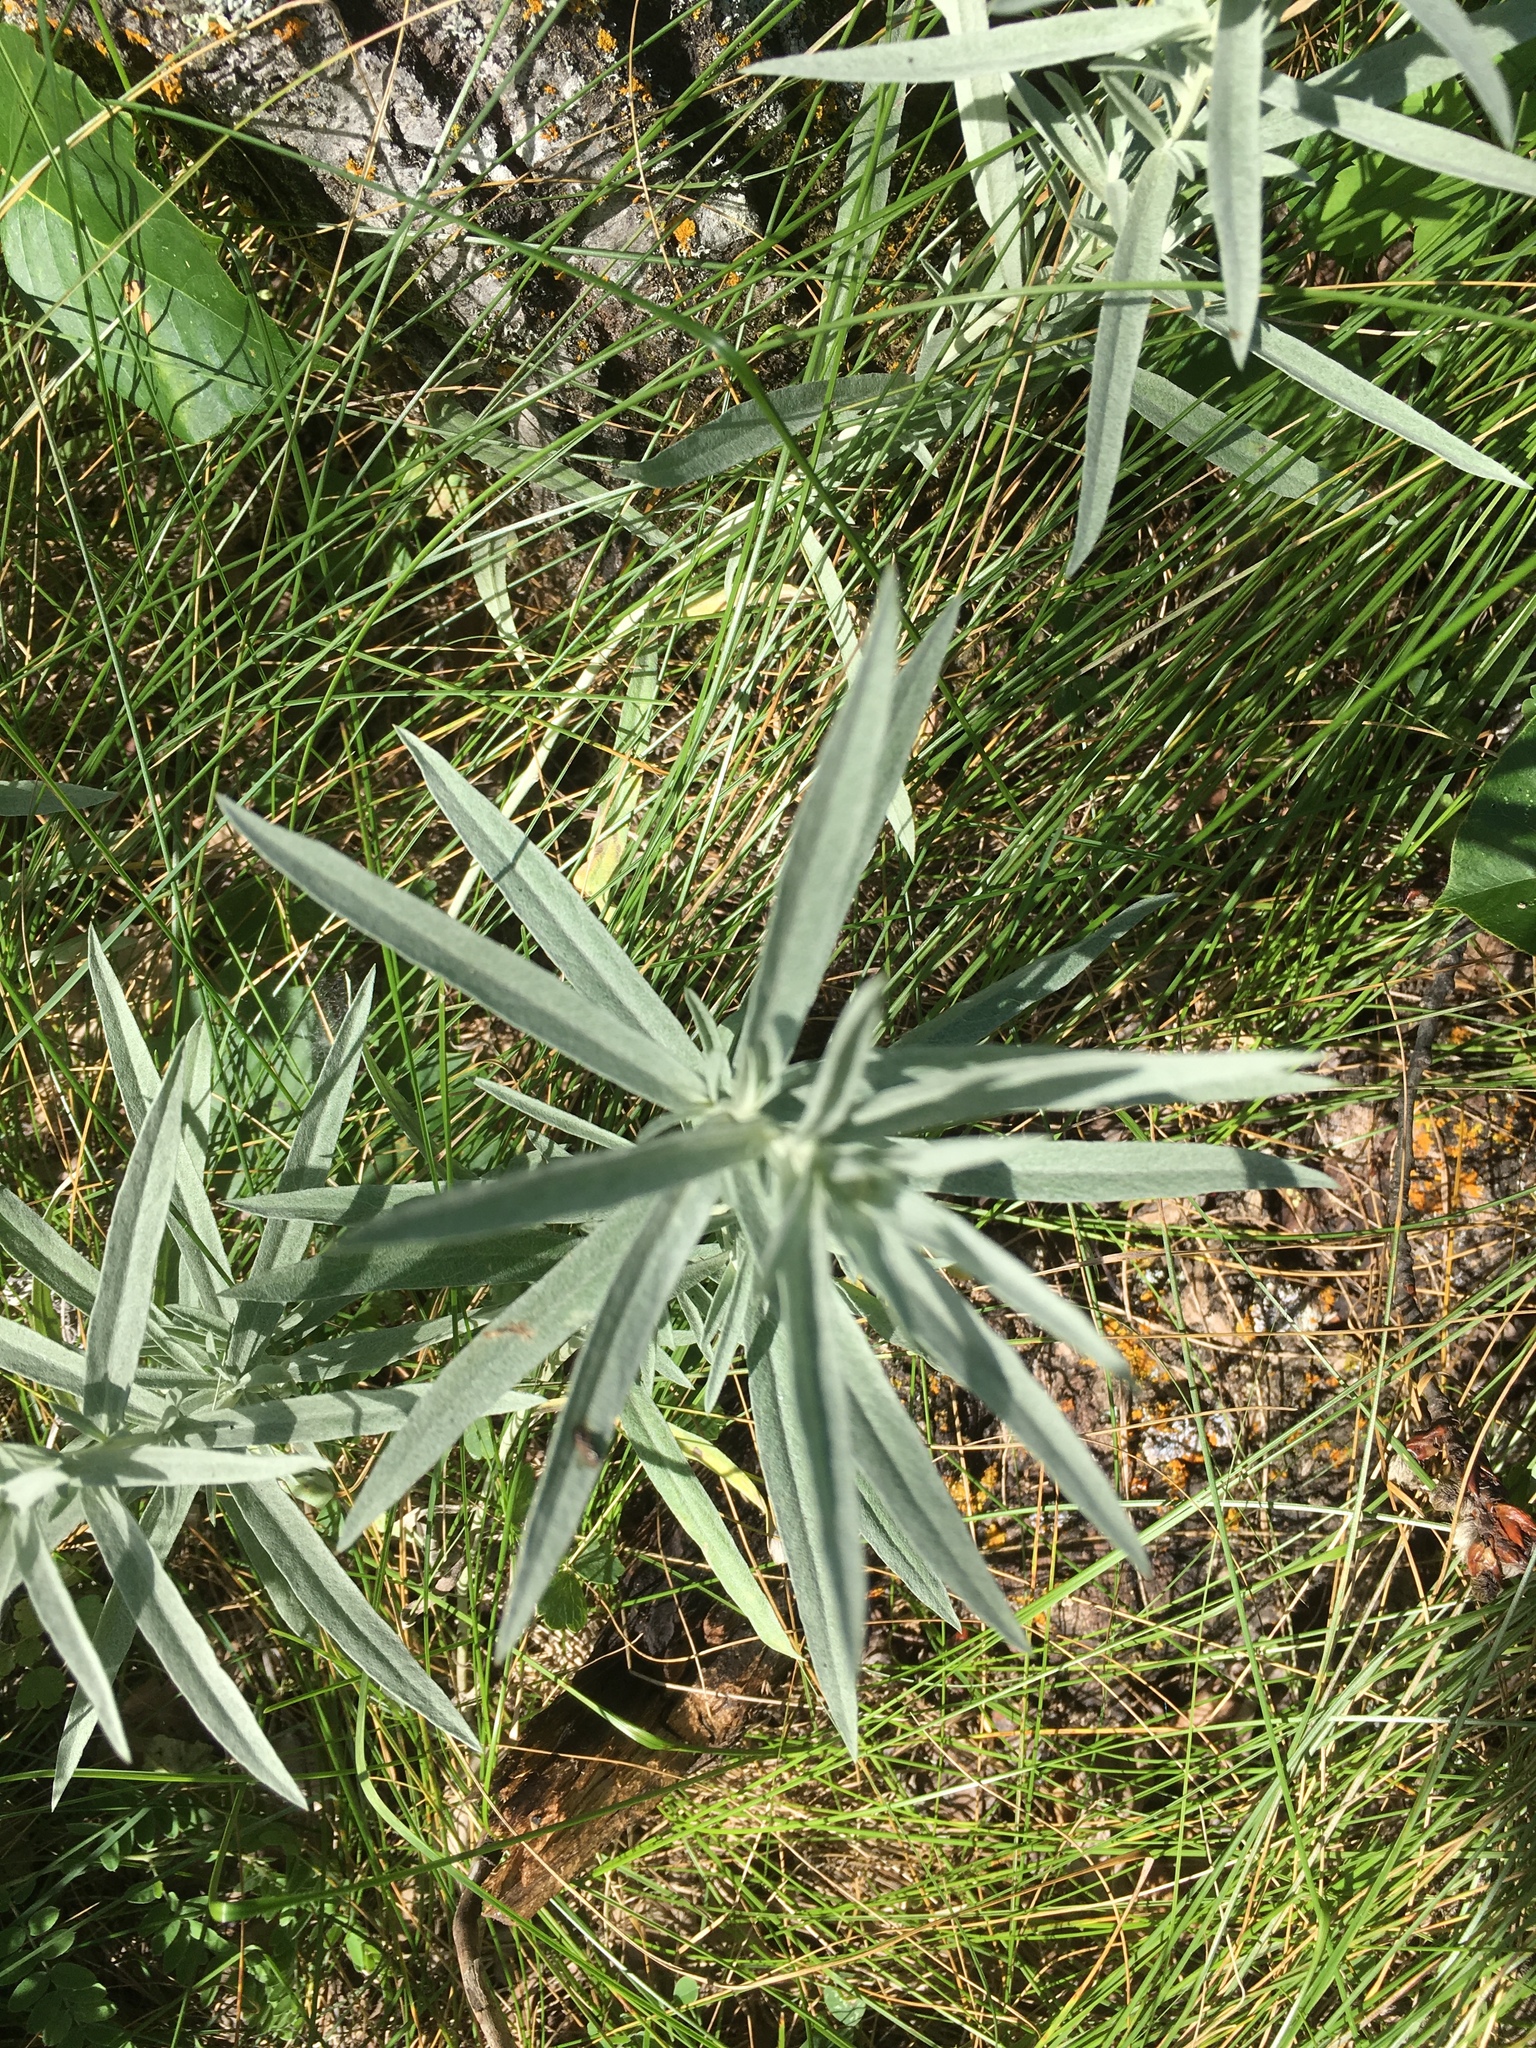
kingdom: Plantae
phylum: Tracheophyta
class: Magnoliopsida
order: Asterales
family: Asteraceae
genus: Artemisia
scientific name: Artemisia ludoviciana
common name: Western mugwort
